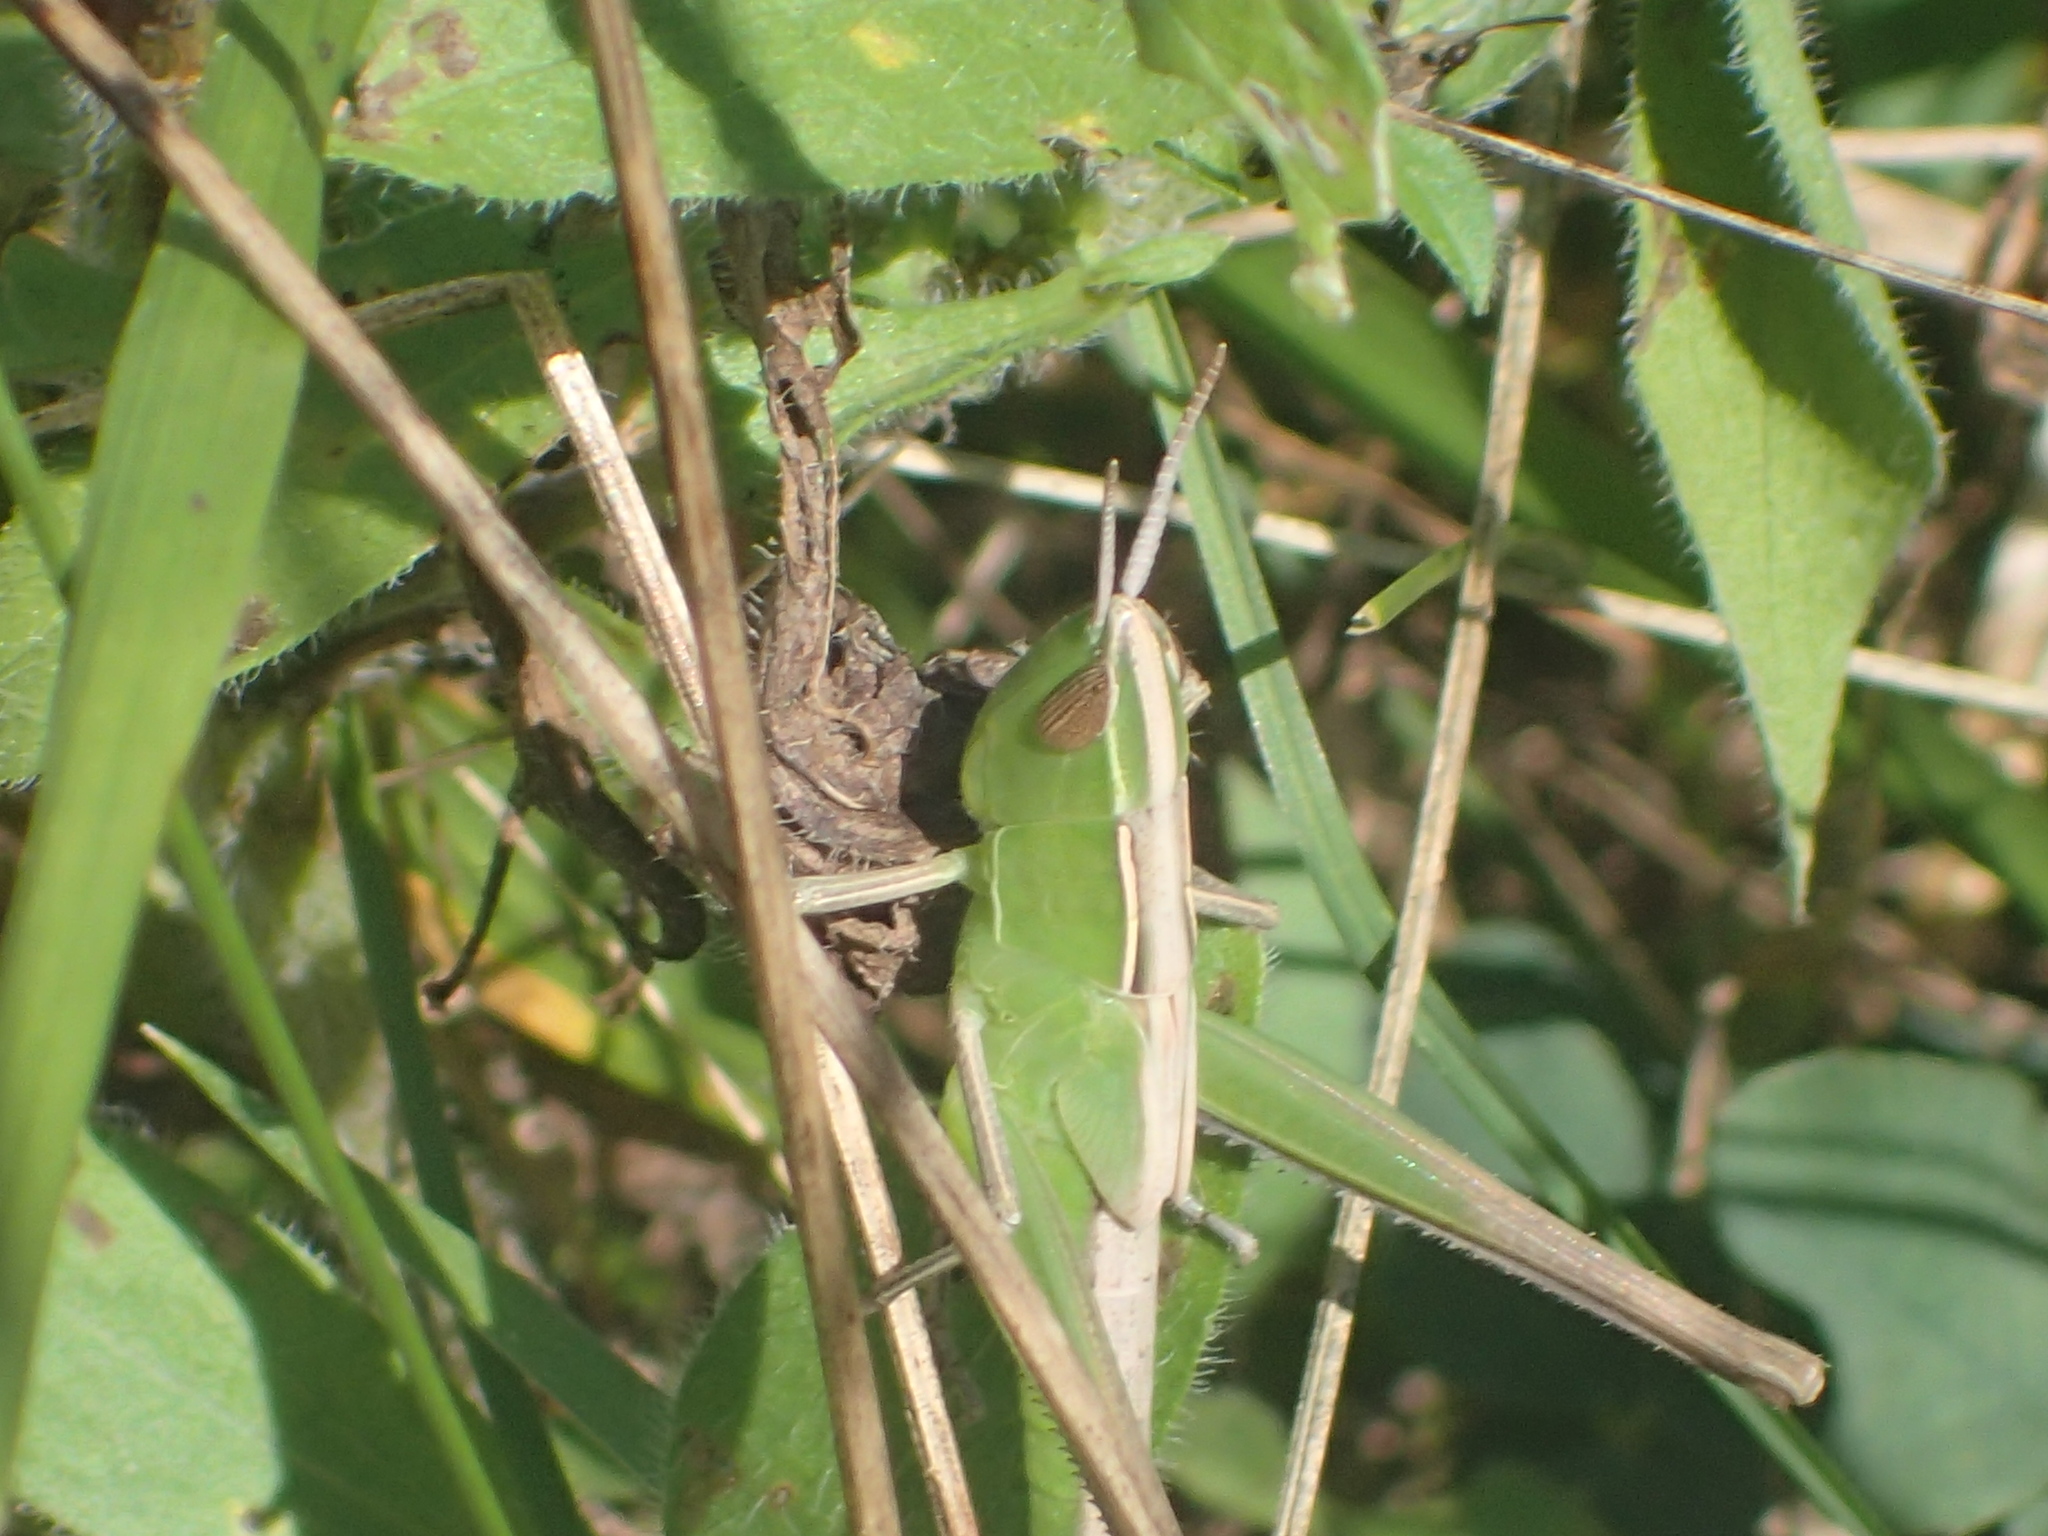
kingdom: Animalia
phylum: Arthropoda
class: Insecta
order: Orthoptera
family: Acrididae
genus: Syrbula
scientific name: Syrbula admirabilis
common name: Handsome grasshopper
